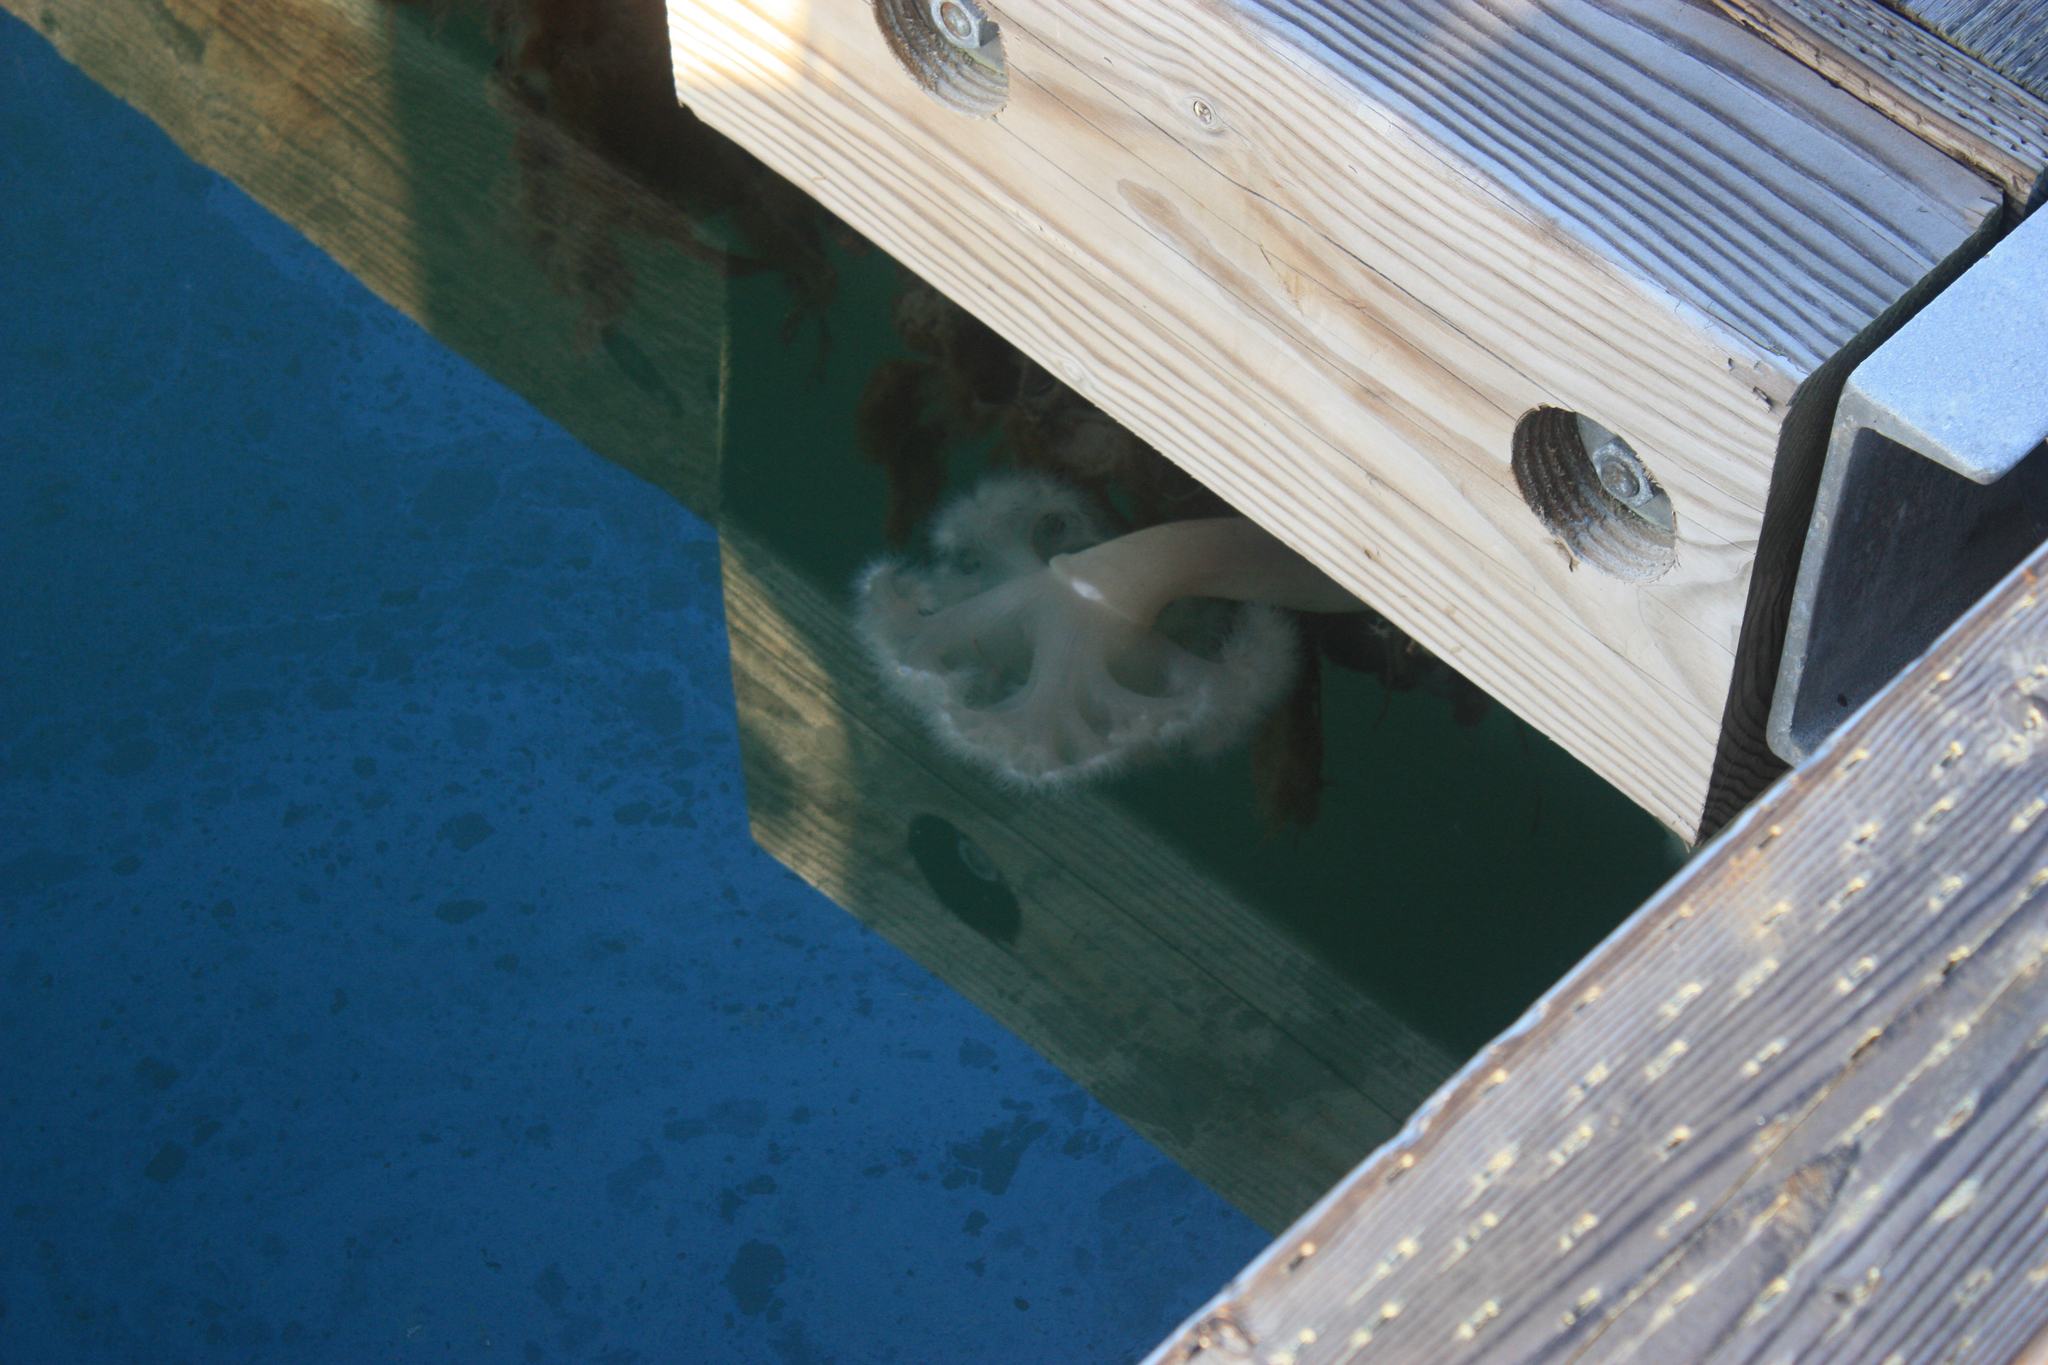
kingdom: Animalia
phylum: Cnidaria
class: Anthozoa
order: Actiniaria
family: Metridiidae
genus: Metridium
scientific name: Metridium farcimen
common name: Gigantic anemone
